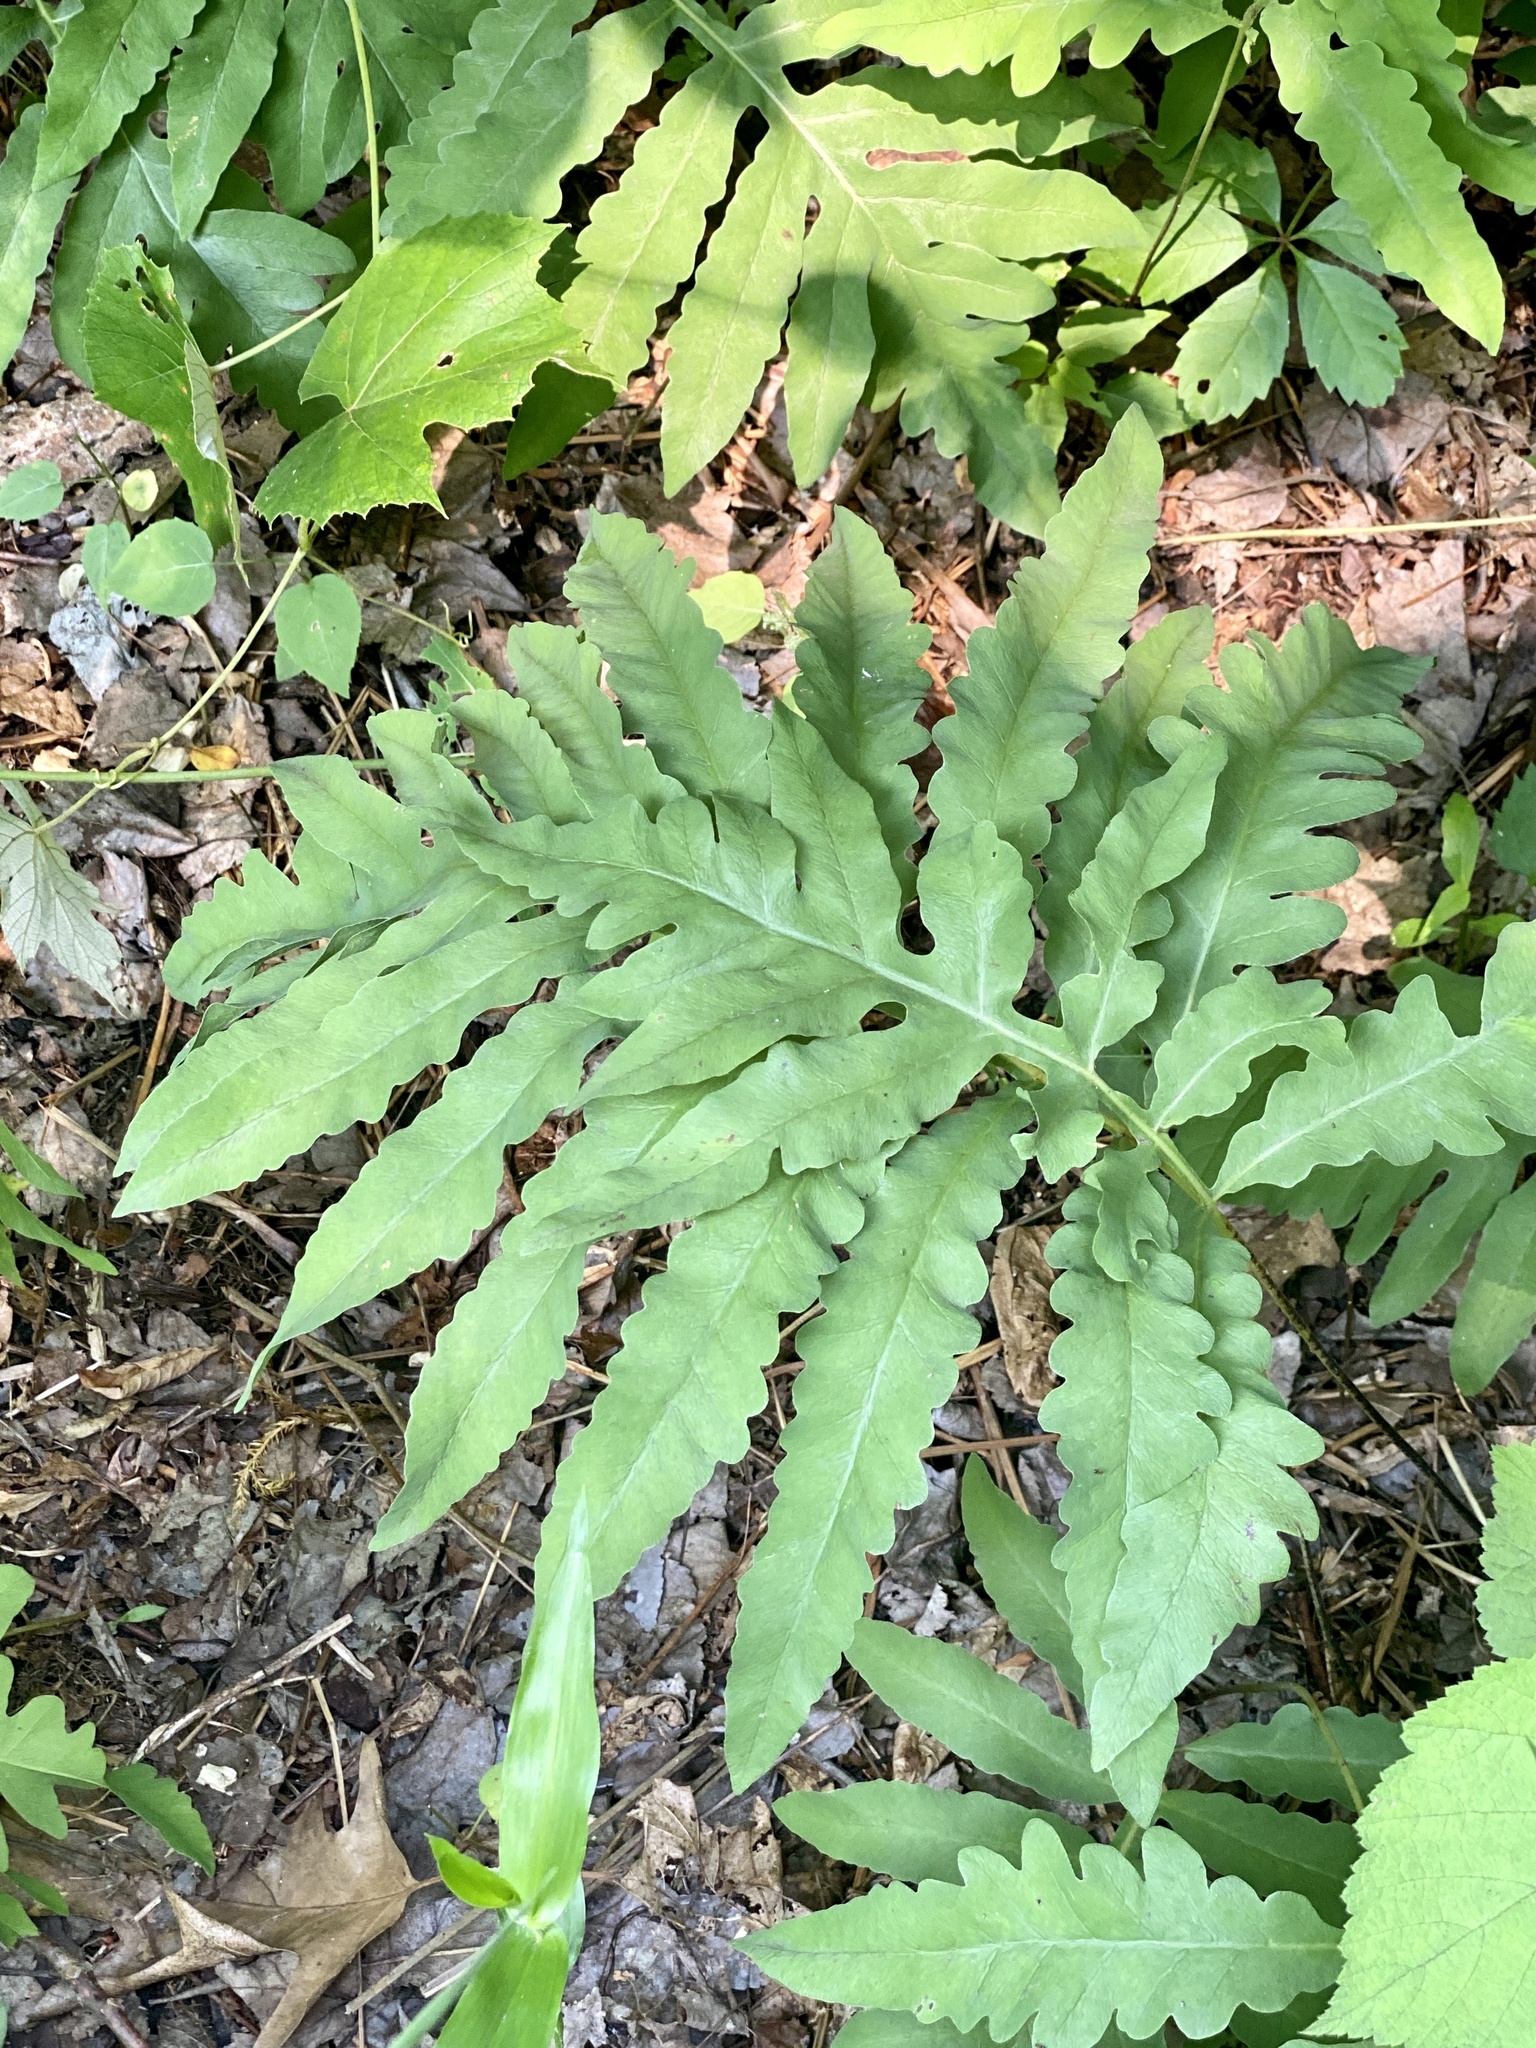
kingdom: Plantae
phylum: Tracheophyta
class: Polypodiopsida
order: Polypodiales
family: Onocleaceae
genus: Onoclea
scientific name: Onoclea sensibilis
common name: Sensitive fern
